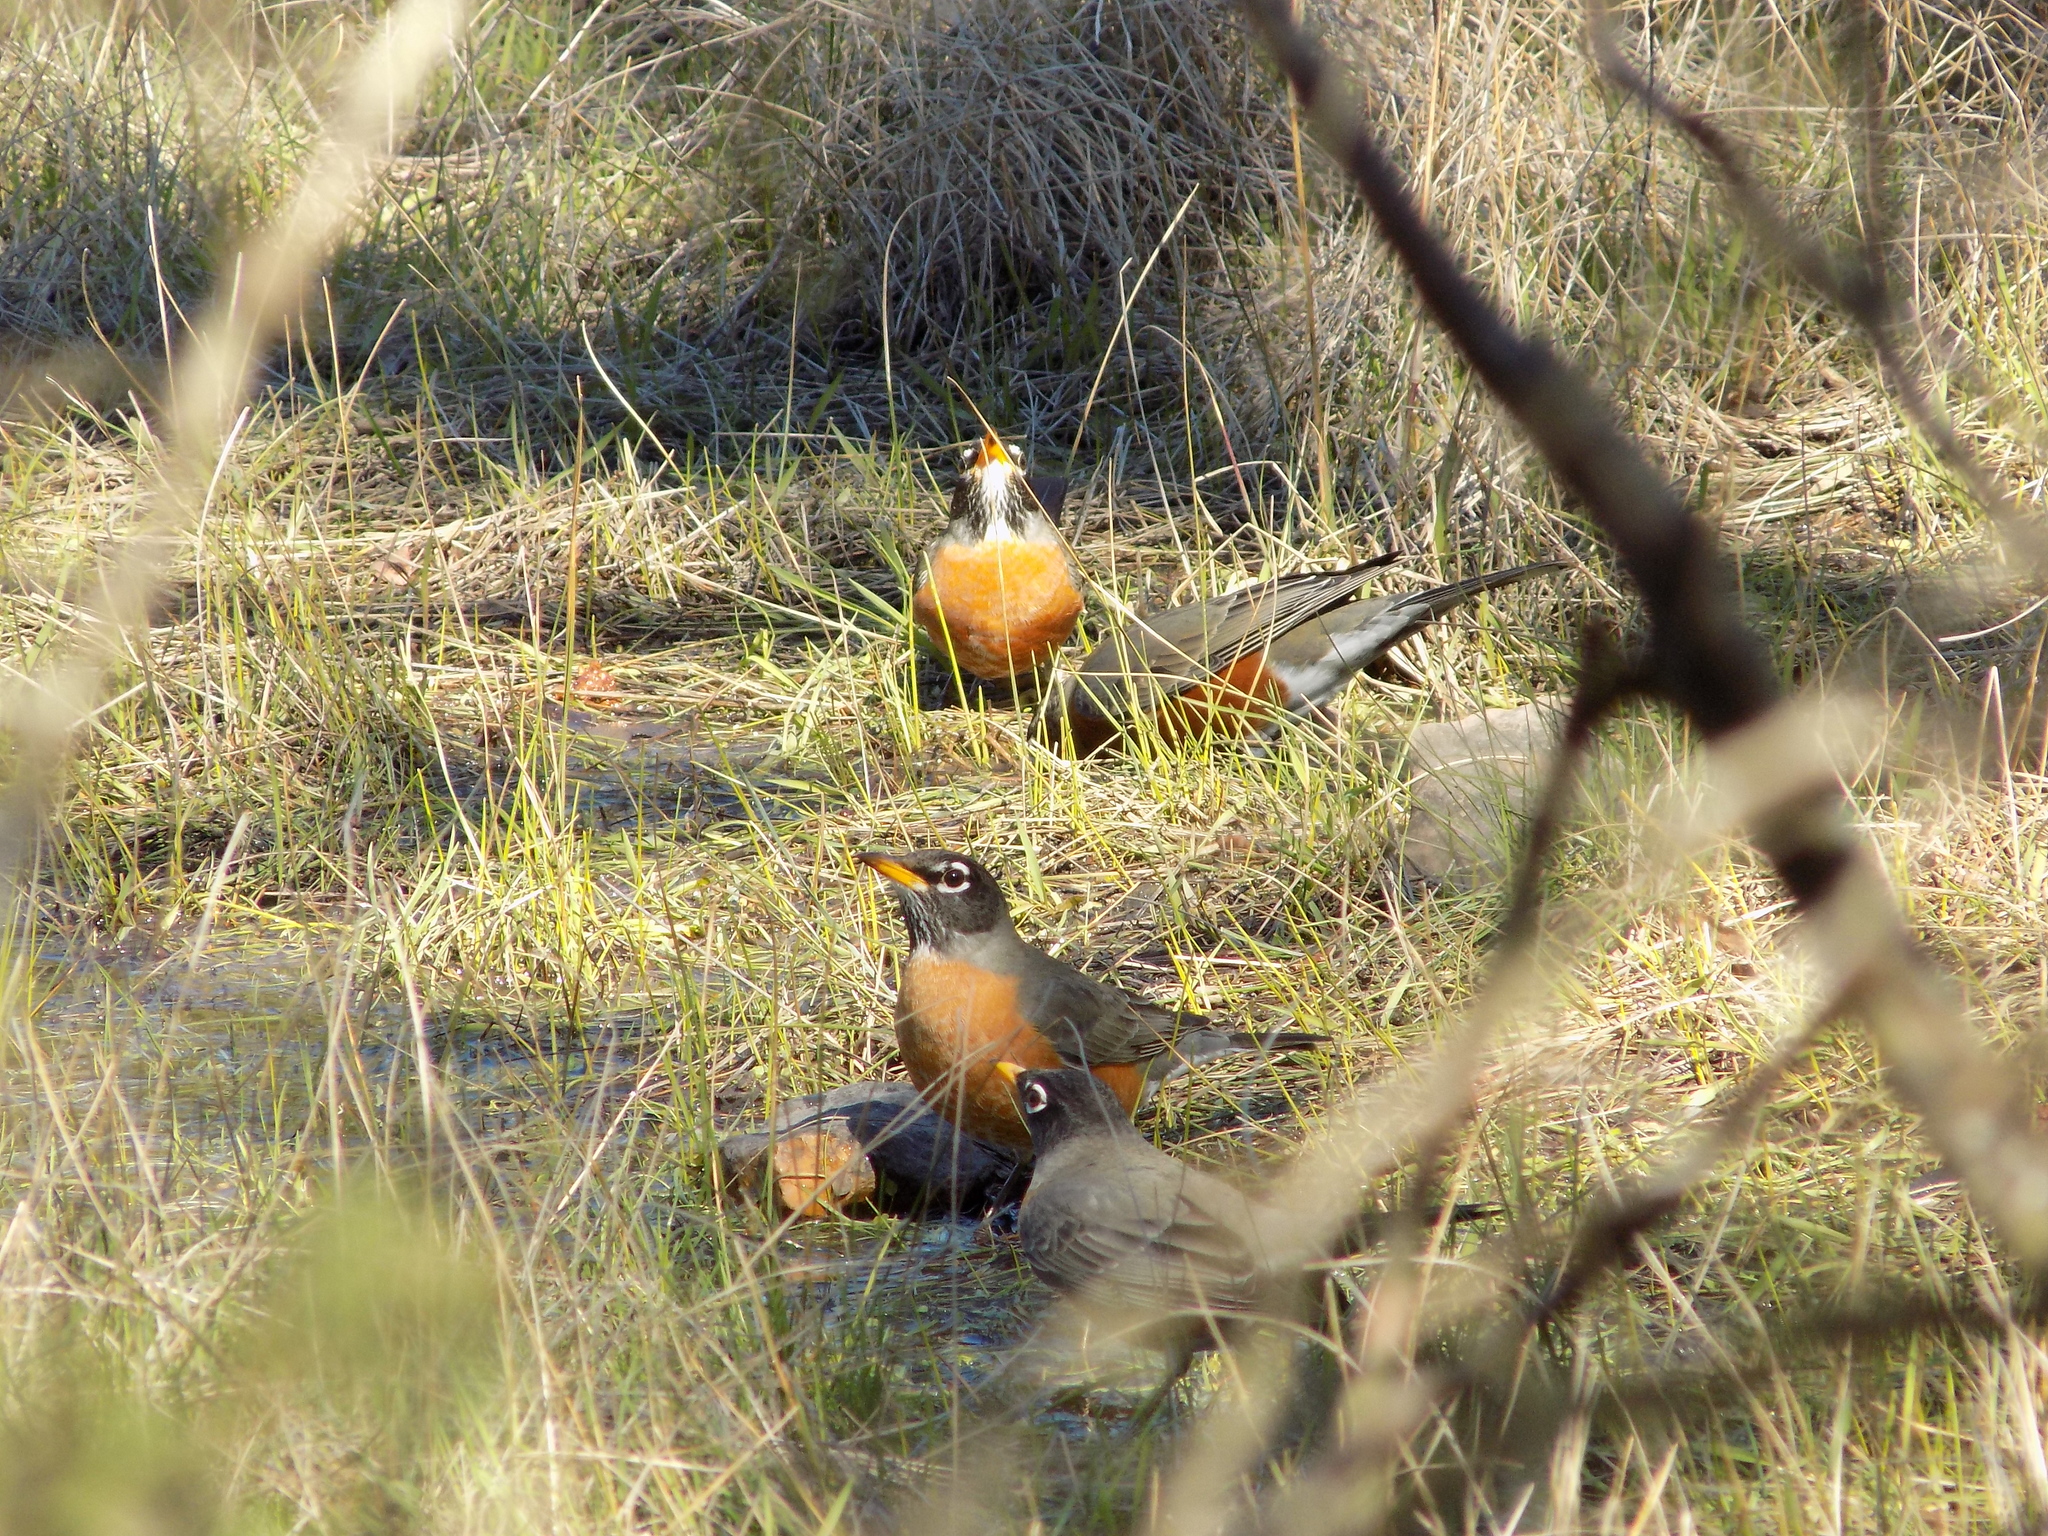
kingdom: Animalia
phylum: Chordata
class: Aves
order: Passeriformes
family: Turdidae
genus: Turdus
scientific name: Turdus migratorius
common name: American robin
